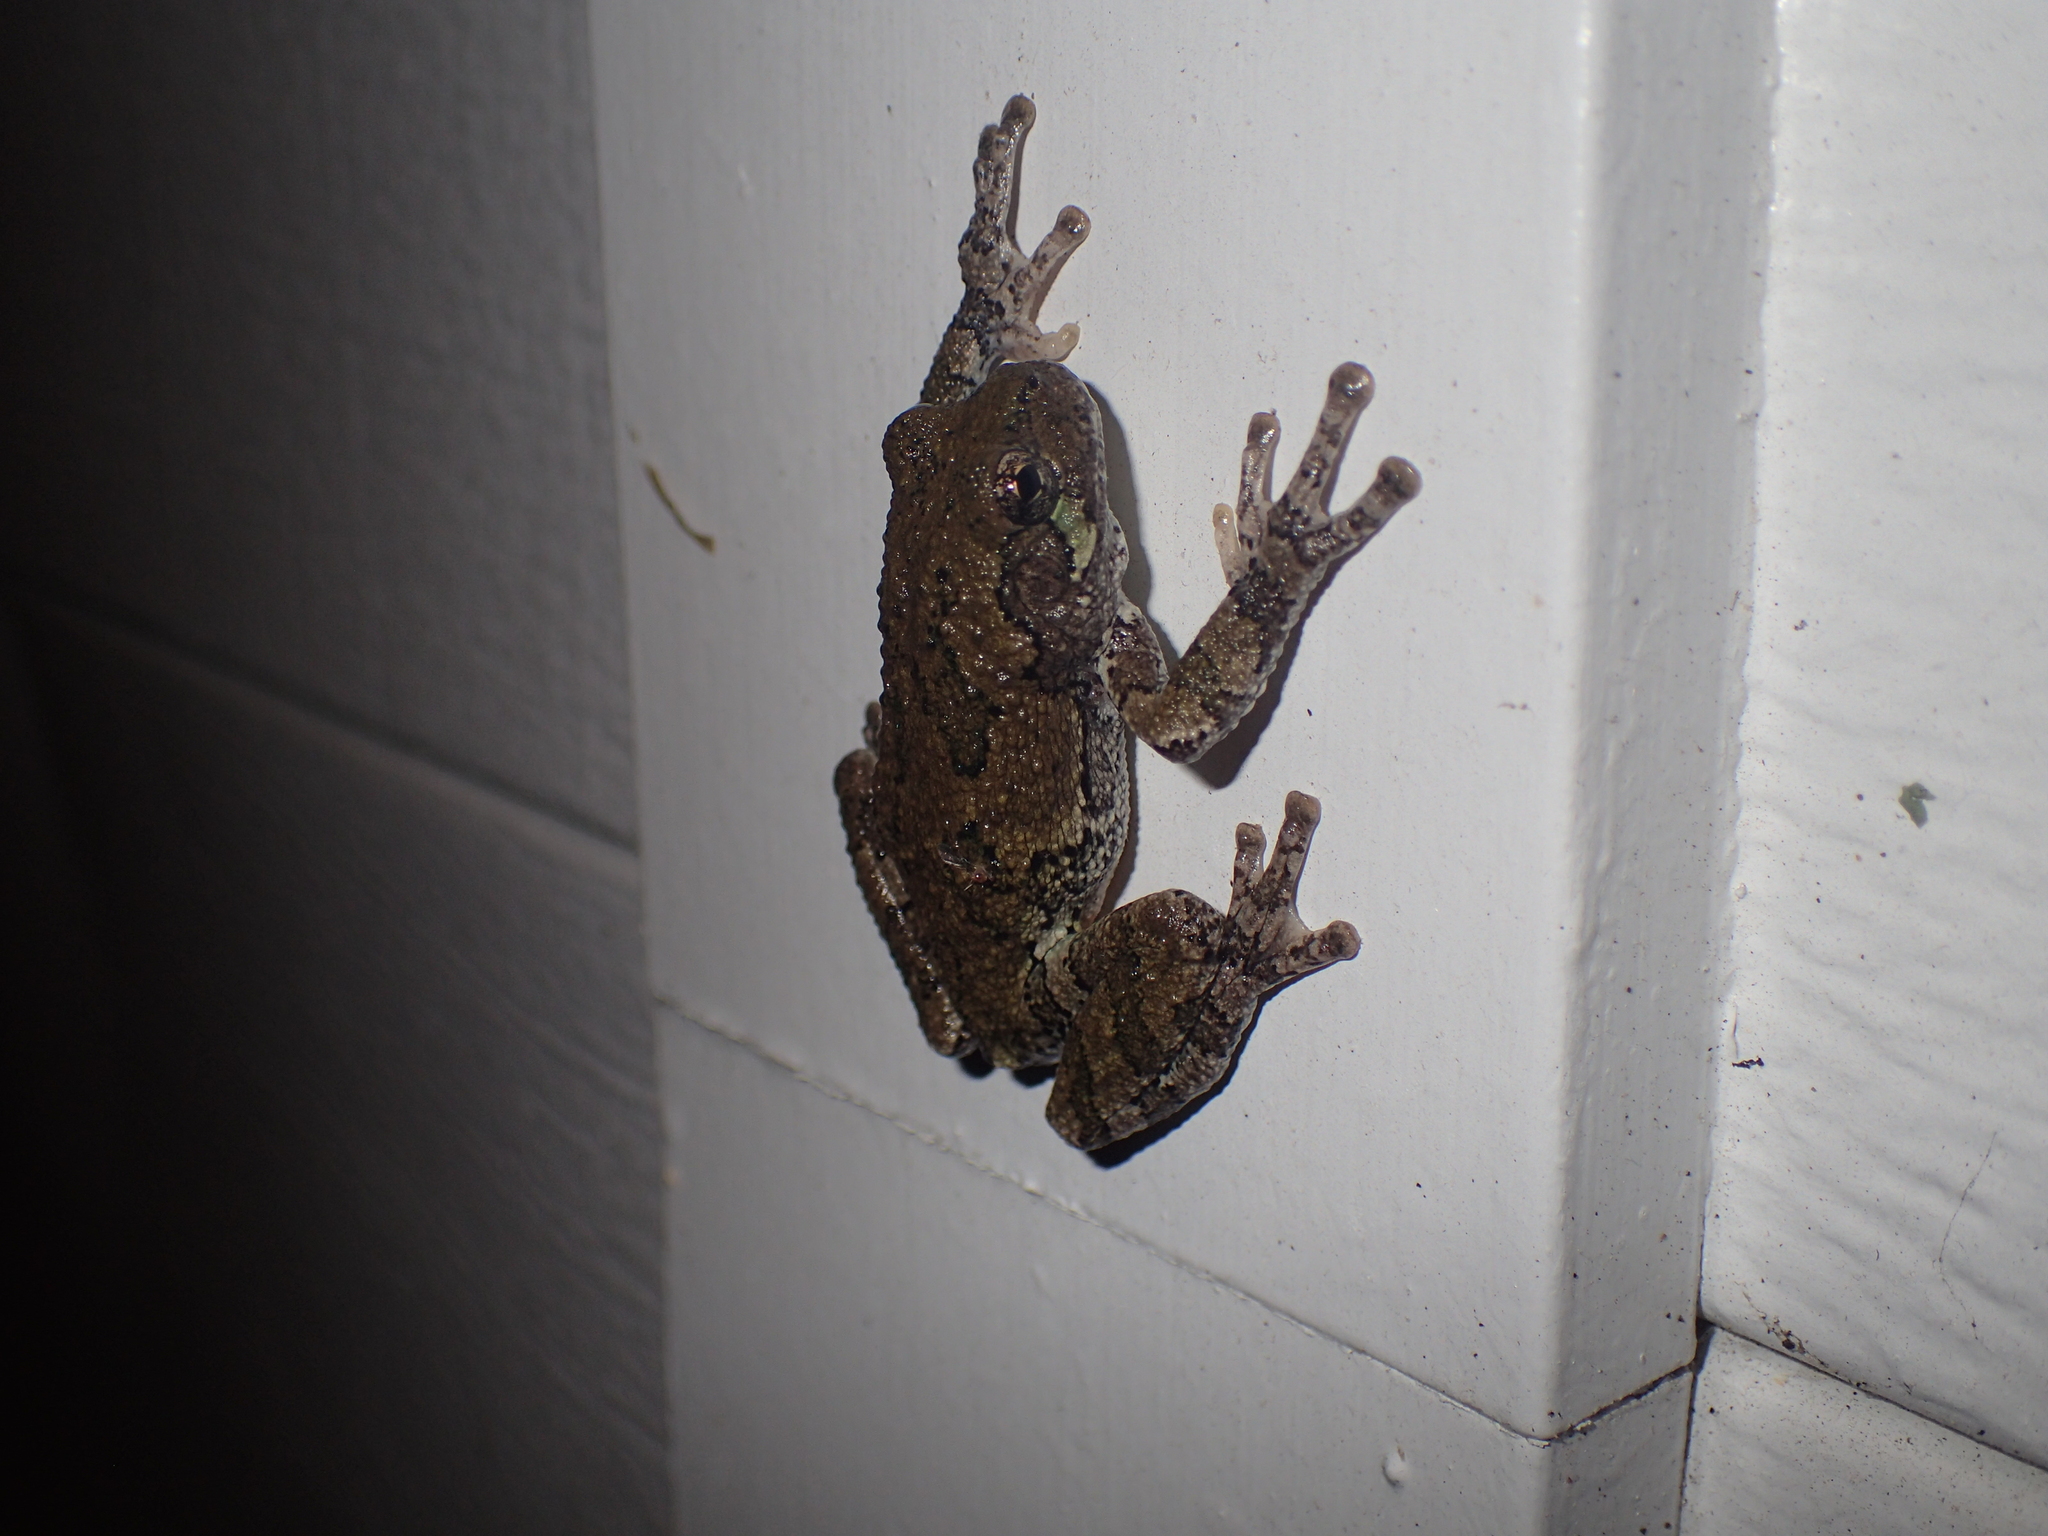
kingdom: Animalia
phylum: Chordata
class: Amphibia
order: Anura
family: Hylidae
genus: Dryophytes
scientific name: Dryophytes versicolor
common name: Gray treefrog
